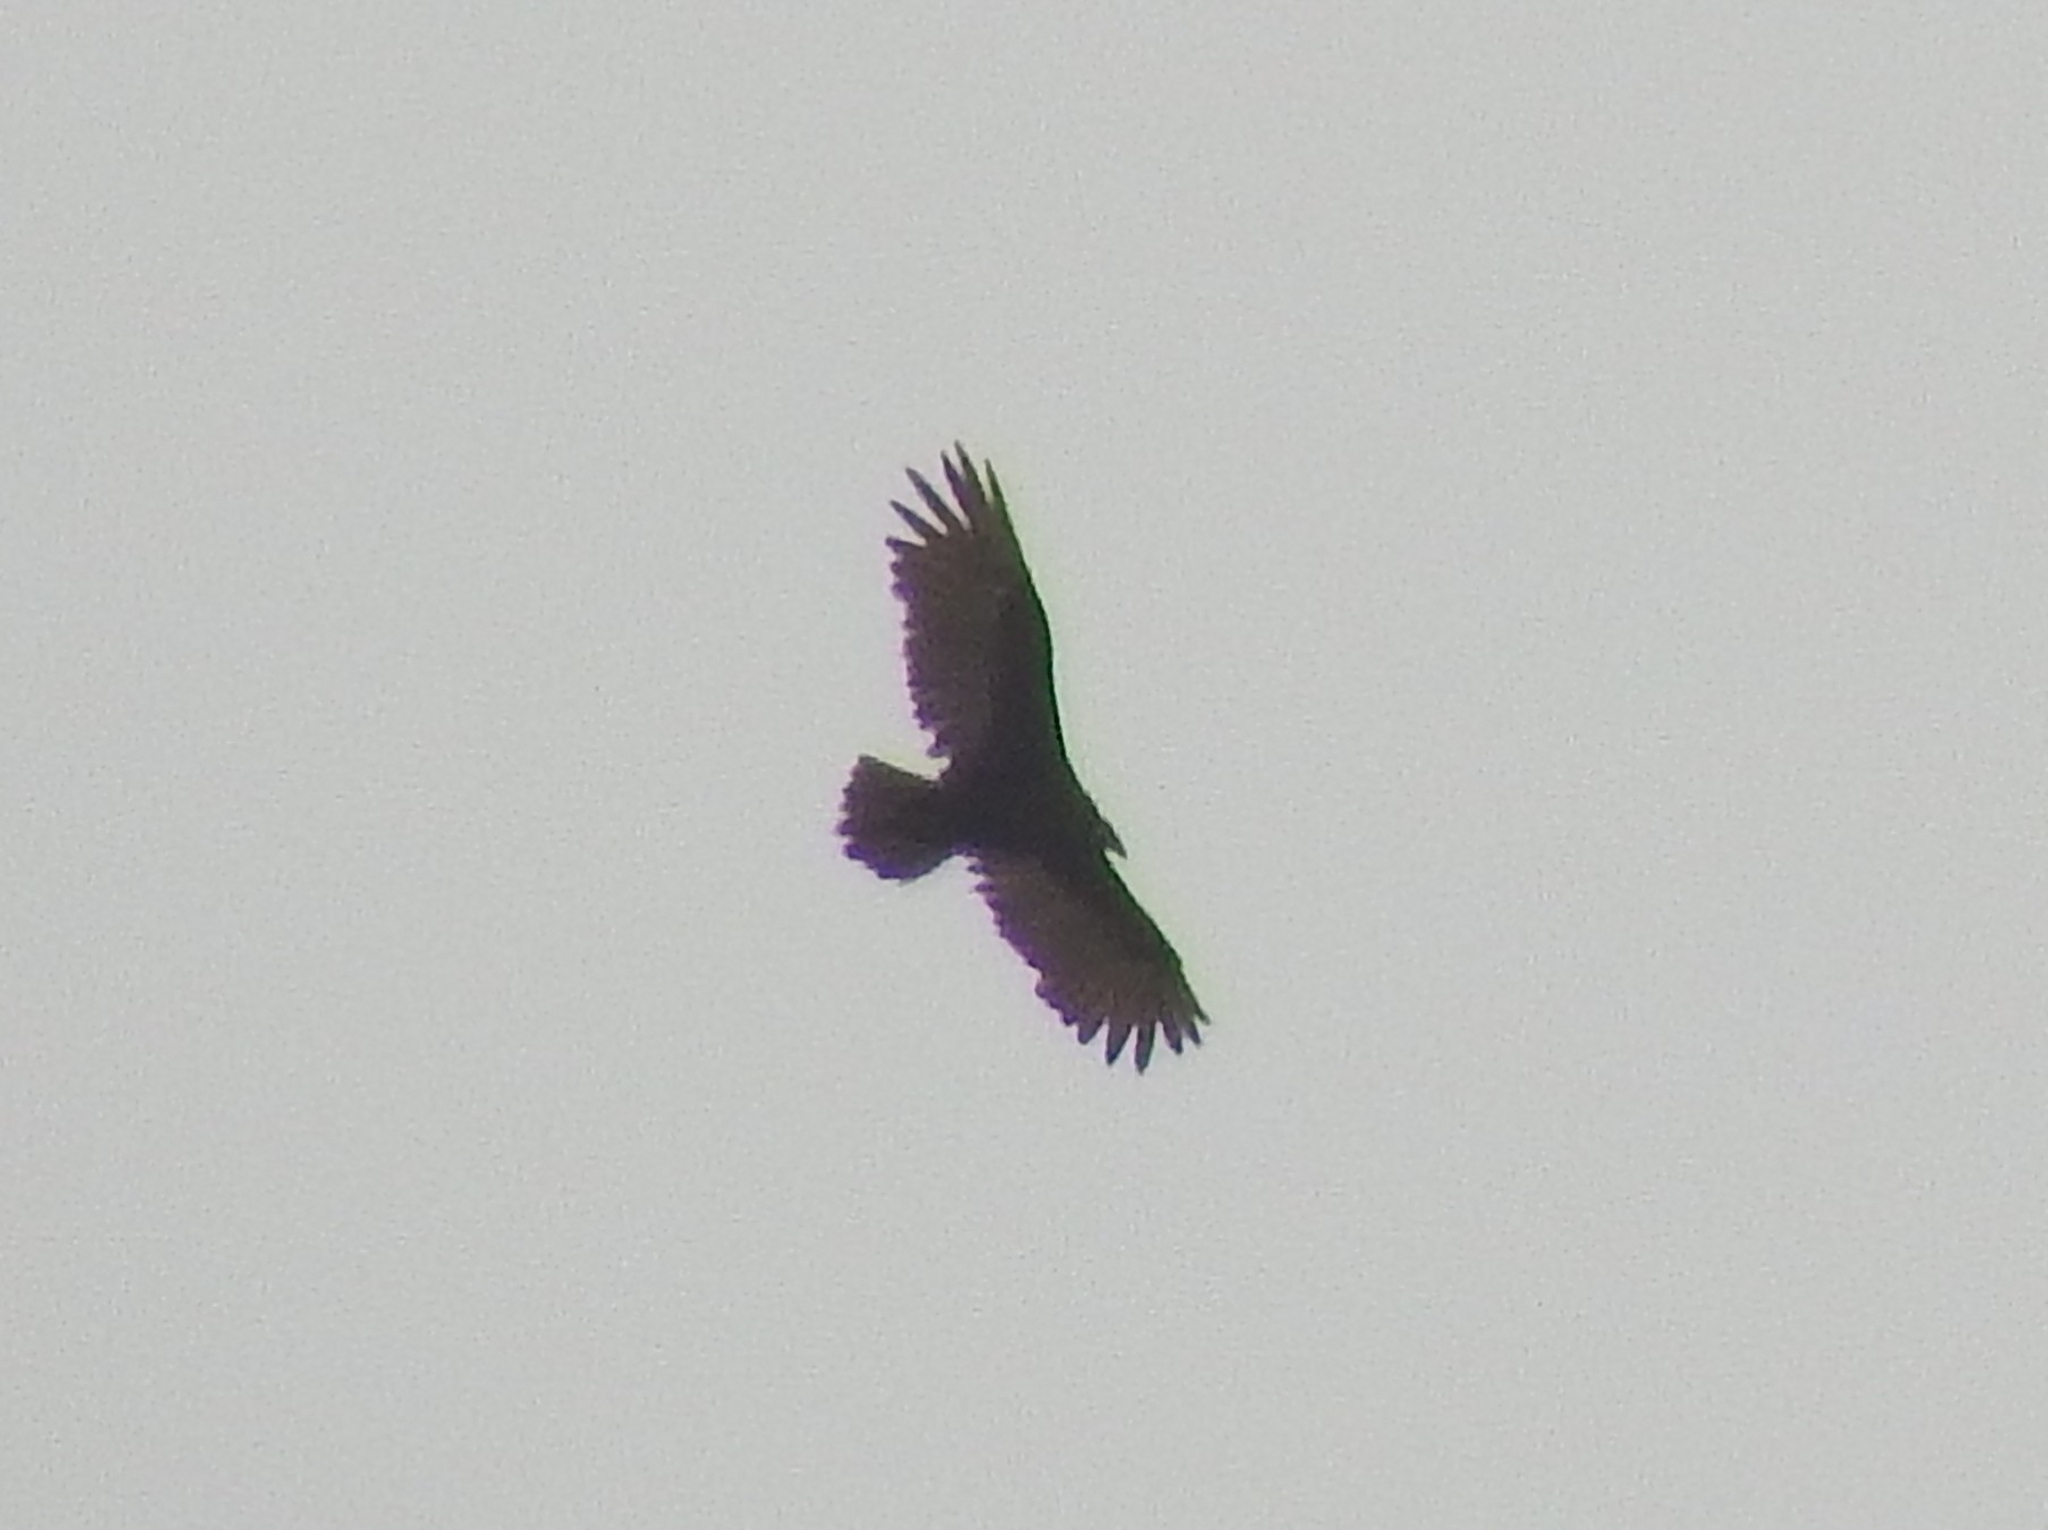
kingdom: Animalia
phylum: Chordata
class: Aves
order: Accipitriformes
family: Cathartidae
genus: Cathartes
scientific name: Cathartes aura
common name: Turkey vulture
